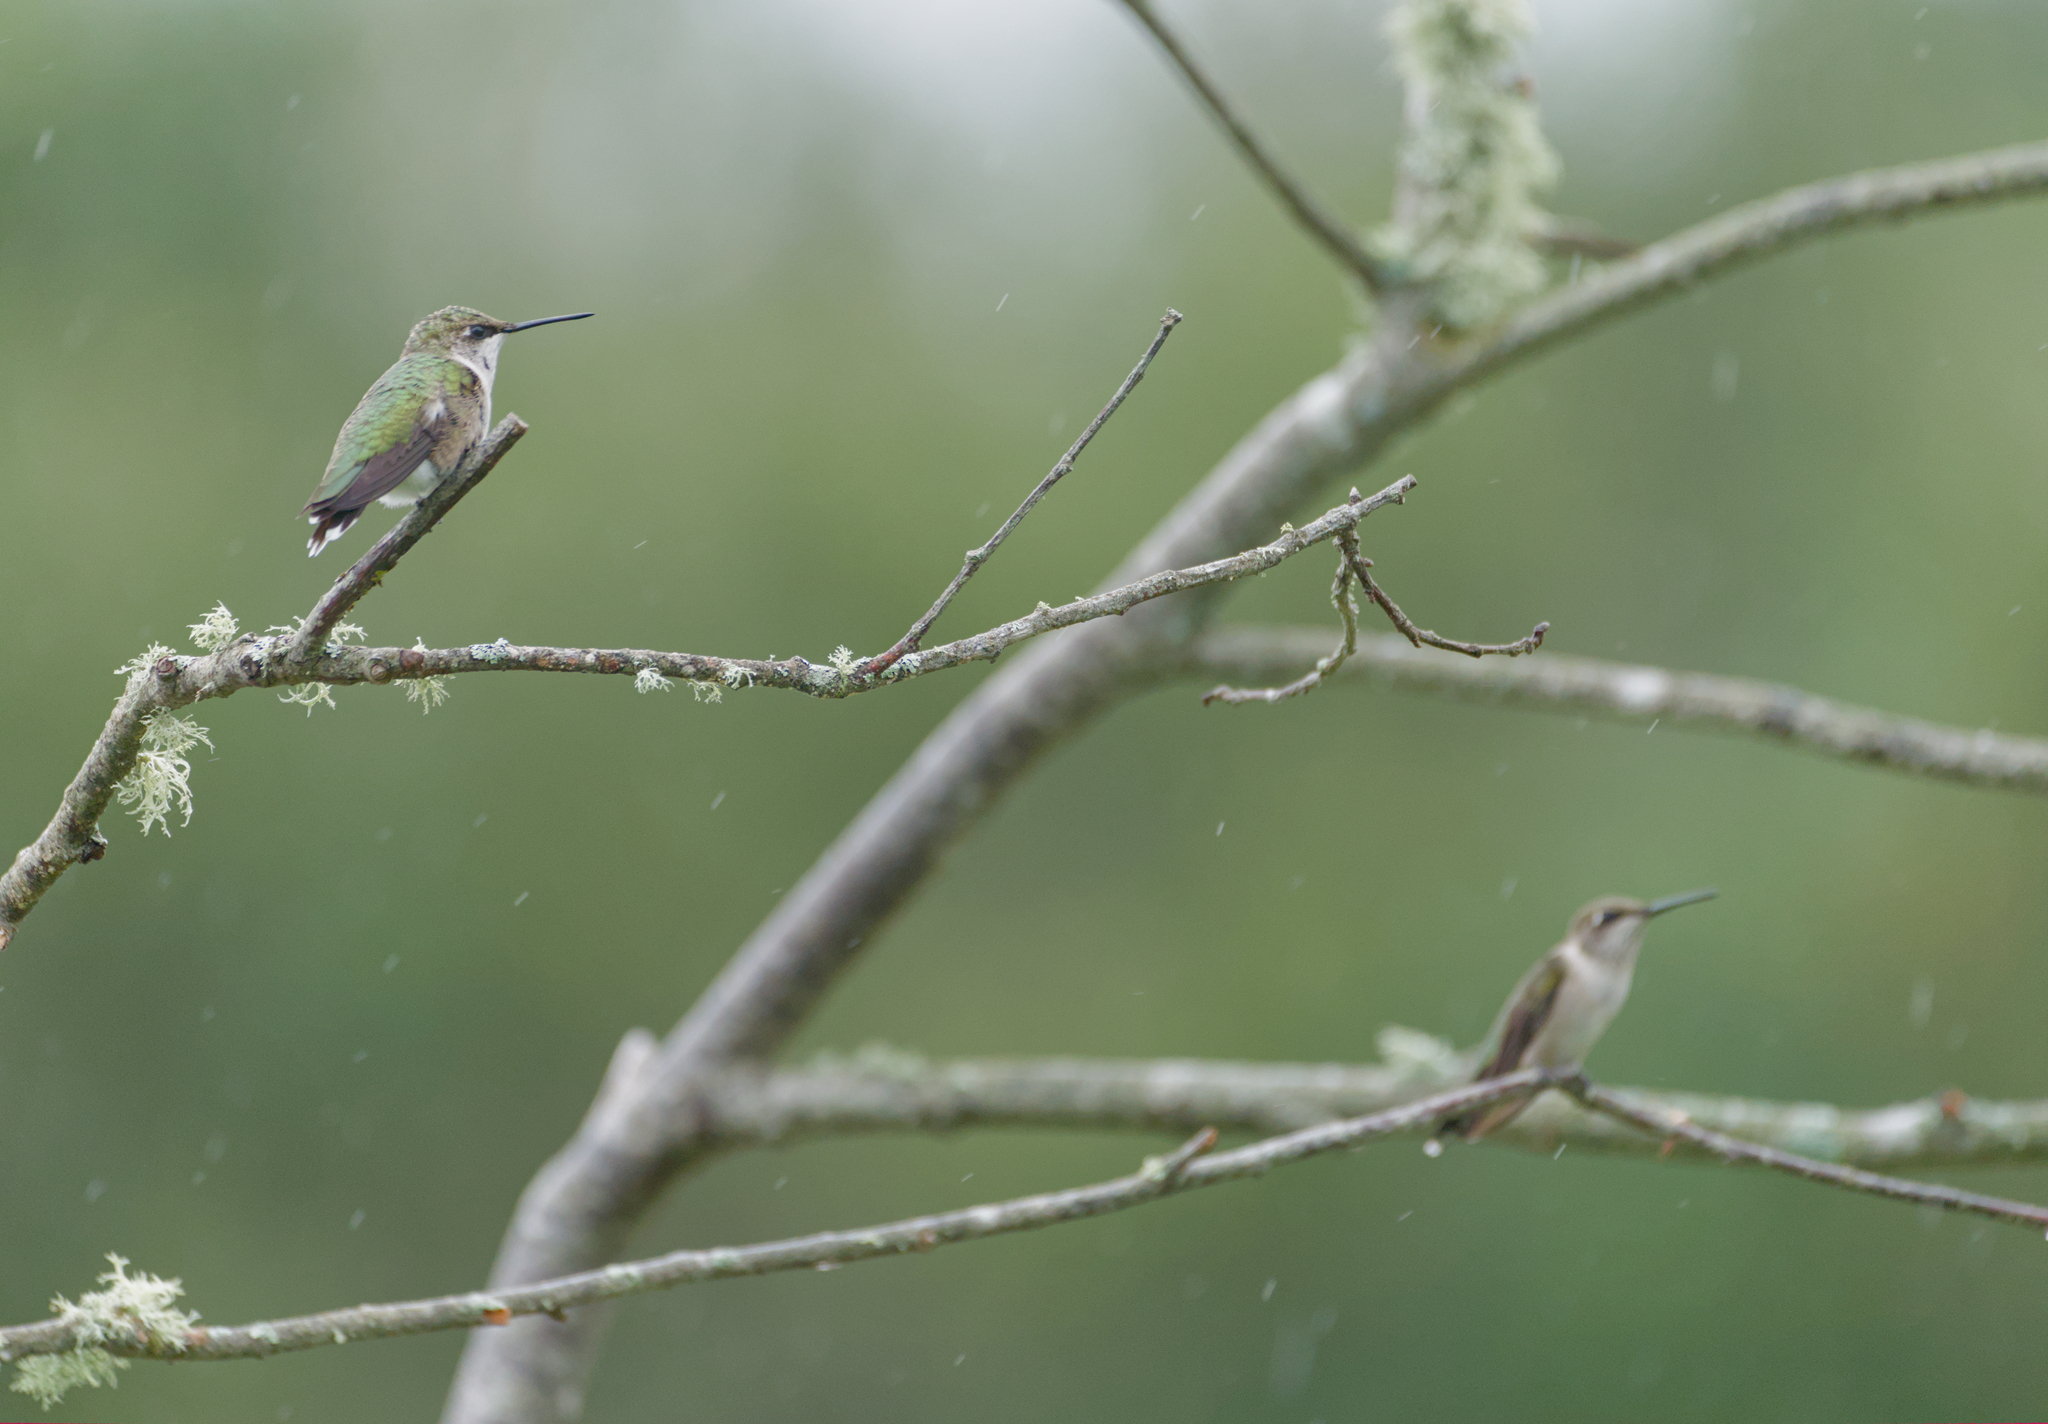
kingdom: Animalia
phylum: Chordata
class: Aves
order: Apodiformes
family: Trochilidae
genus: Archilochus
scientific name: Archilochus colubris
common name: Ruby-throated hummingbird
